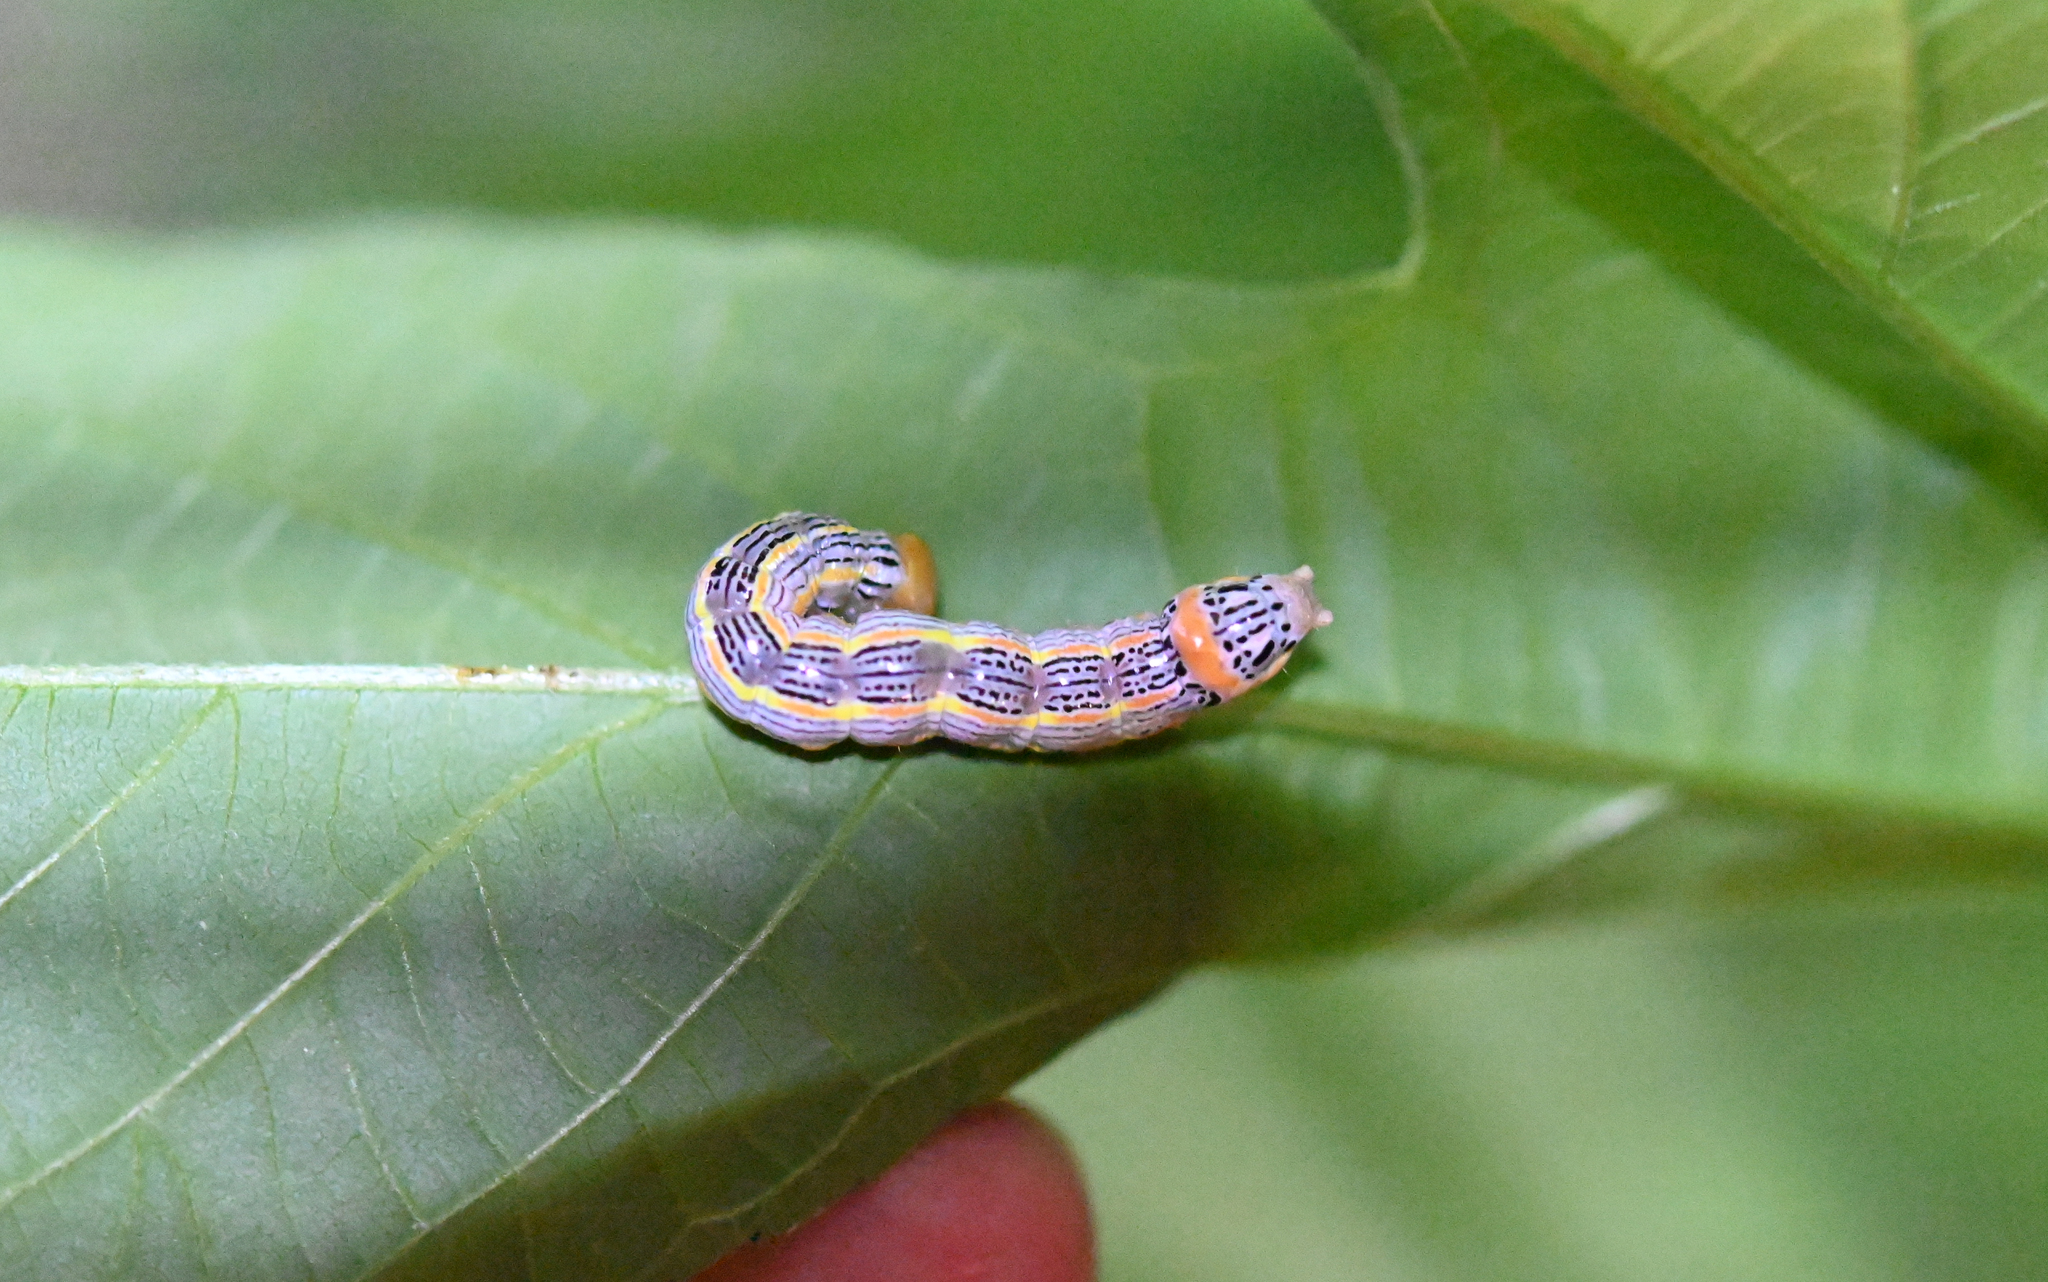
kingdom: Animalia
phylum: Arthropoda
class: Insecta
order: Lepidoptera
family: Notodontidae
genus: Symmerista
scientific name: Symmerista albifrons
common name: White-headed prominent
